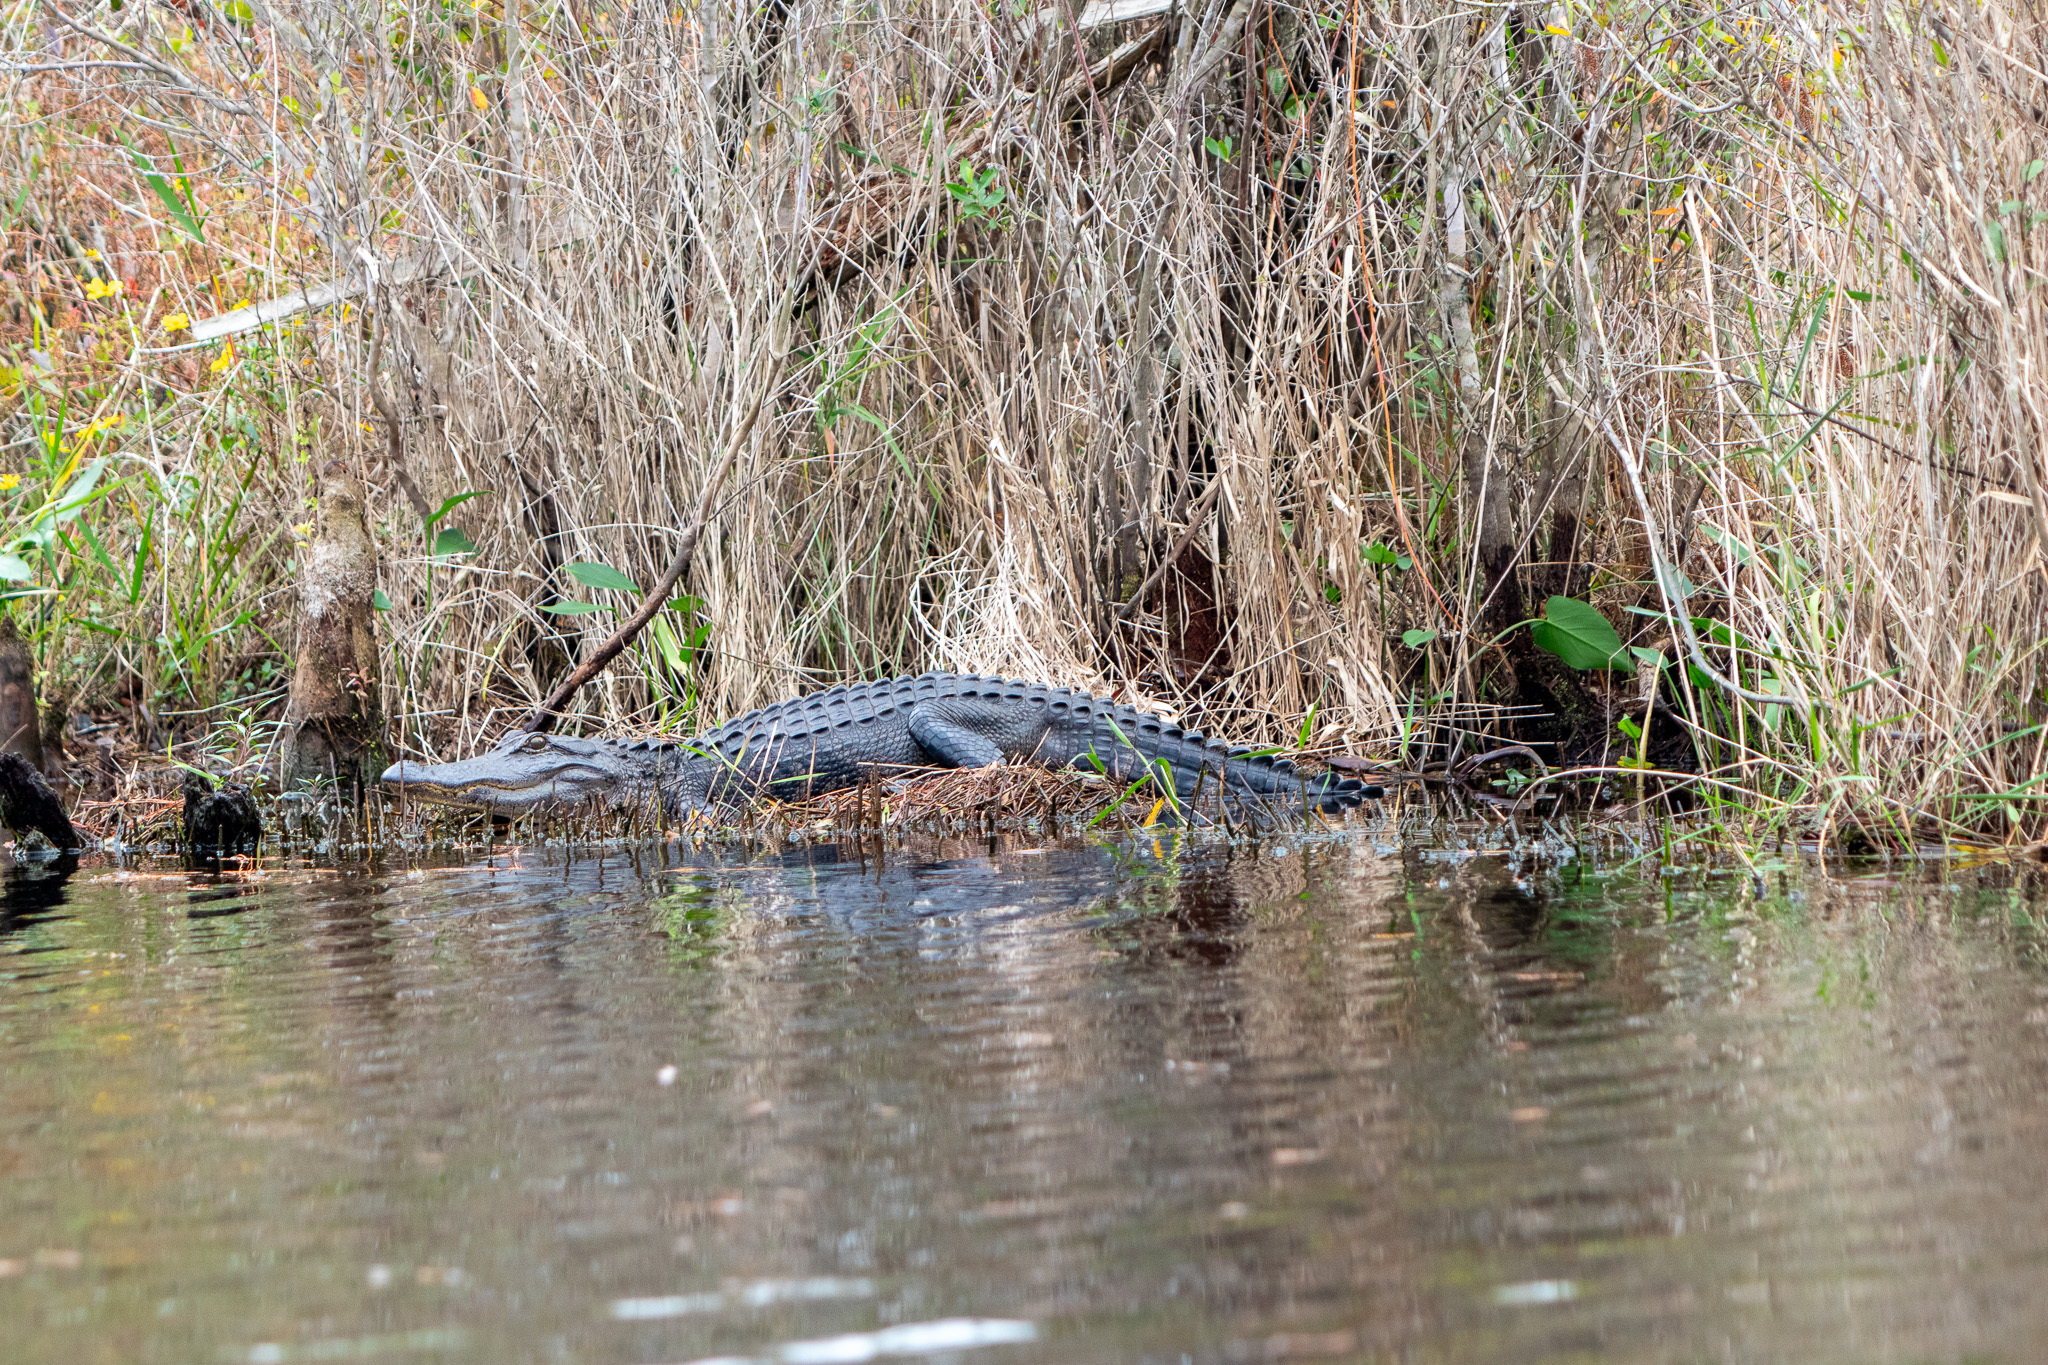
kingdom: Animalia
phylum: Chordata
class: Crocodylia
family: Alligatoridae
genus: Alligator
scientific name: Alligator mississippiensis
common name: American alligator
